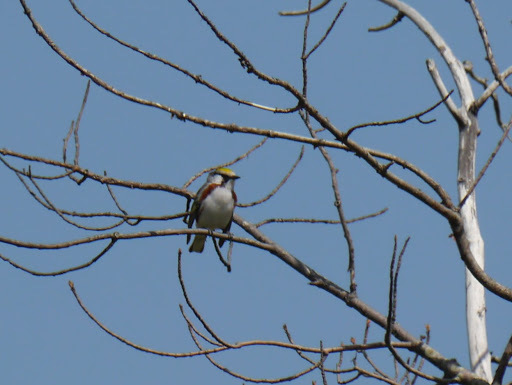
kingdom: Animalia
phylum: Chordata
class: Aves
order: Passeriformes
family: Parulidae
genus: Setophaga
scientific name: Setophaga pensylvanica
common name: Chestnut-sided warbler
